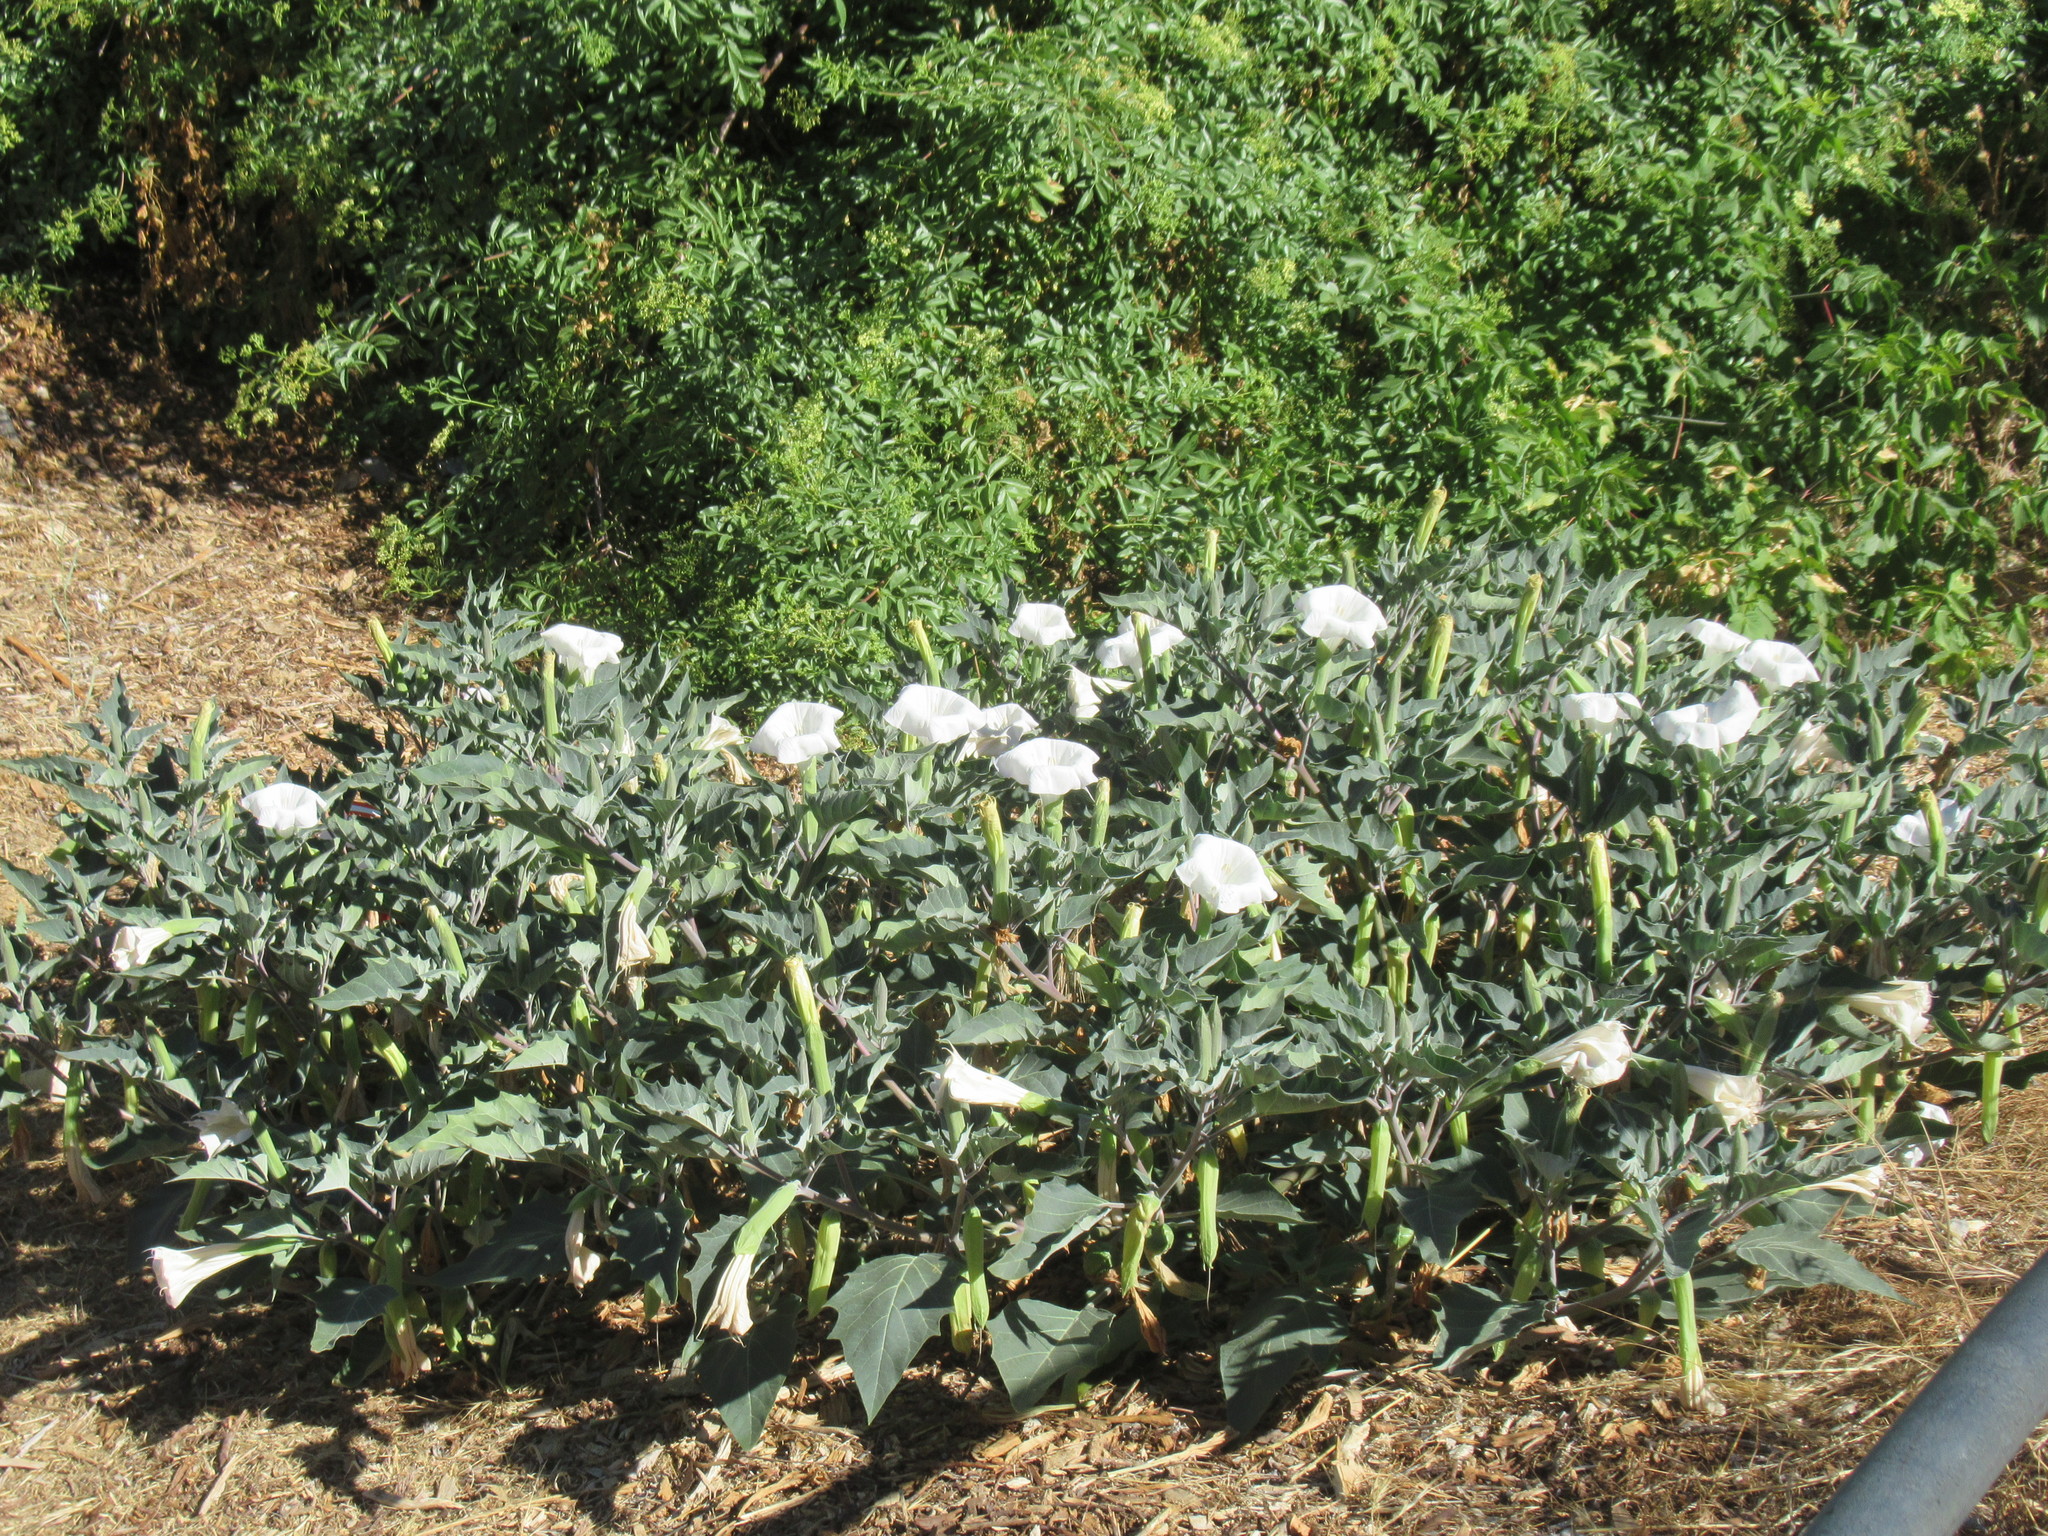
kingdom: Plantae
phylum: Tracheophyta
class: Magnoliopsida
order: Solanales
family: Solanaceae
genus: Datura
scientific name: Datura wrightii
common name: Sacred thorn-apple
